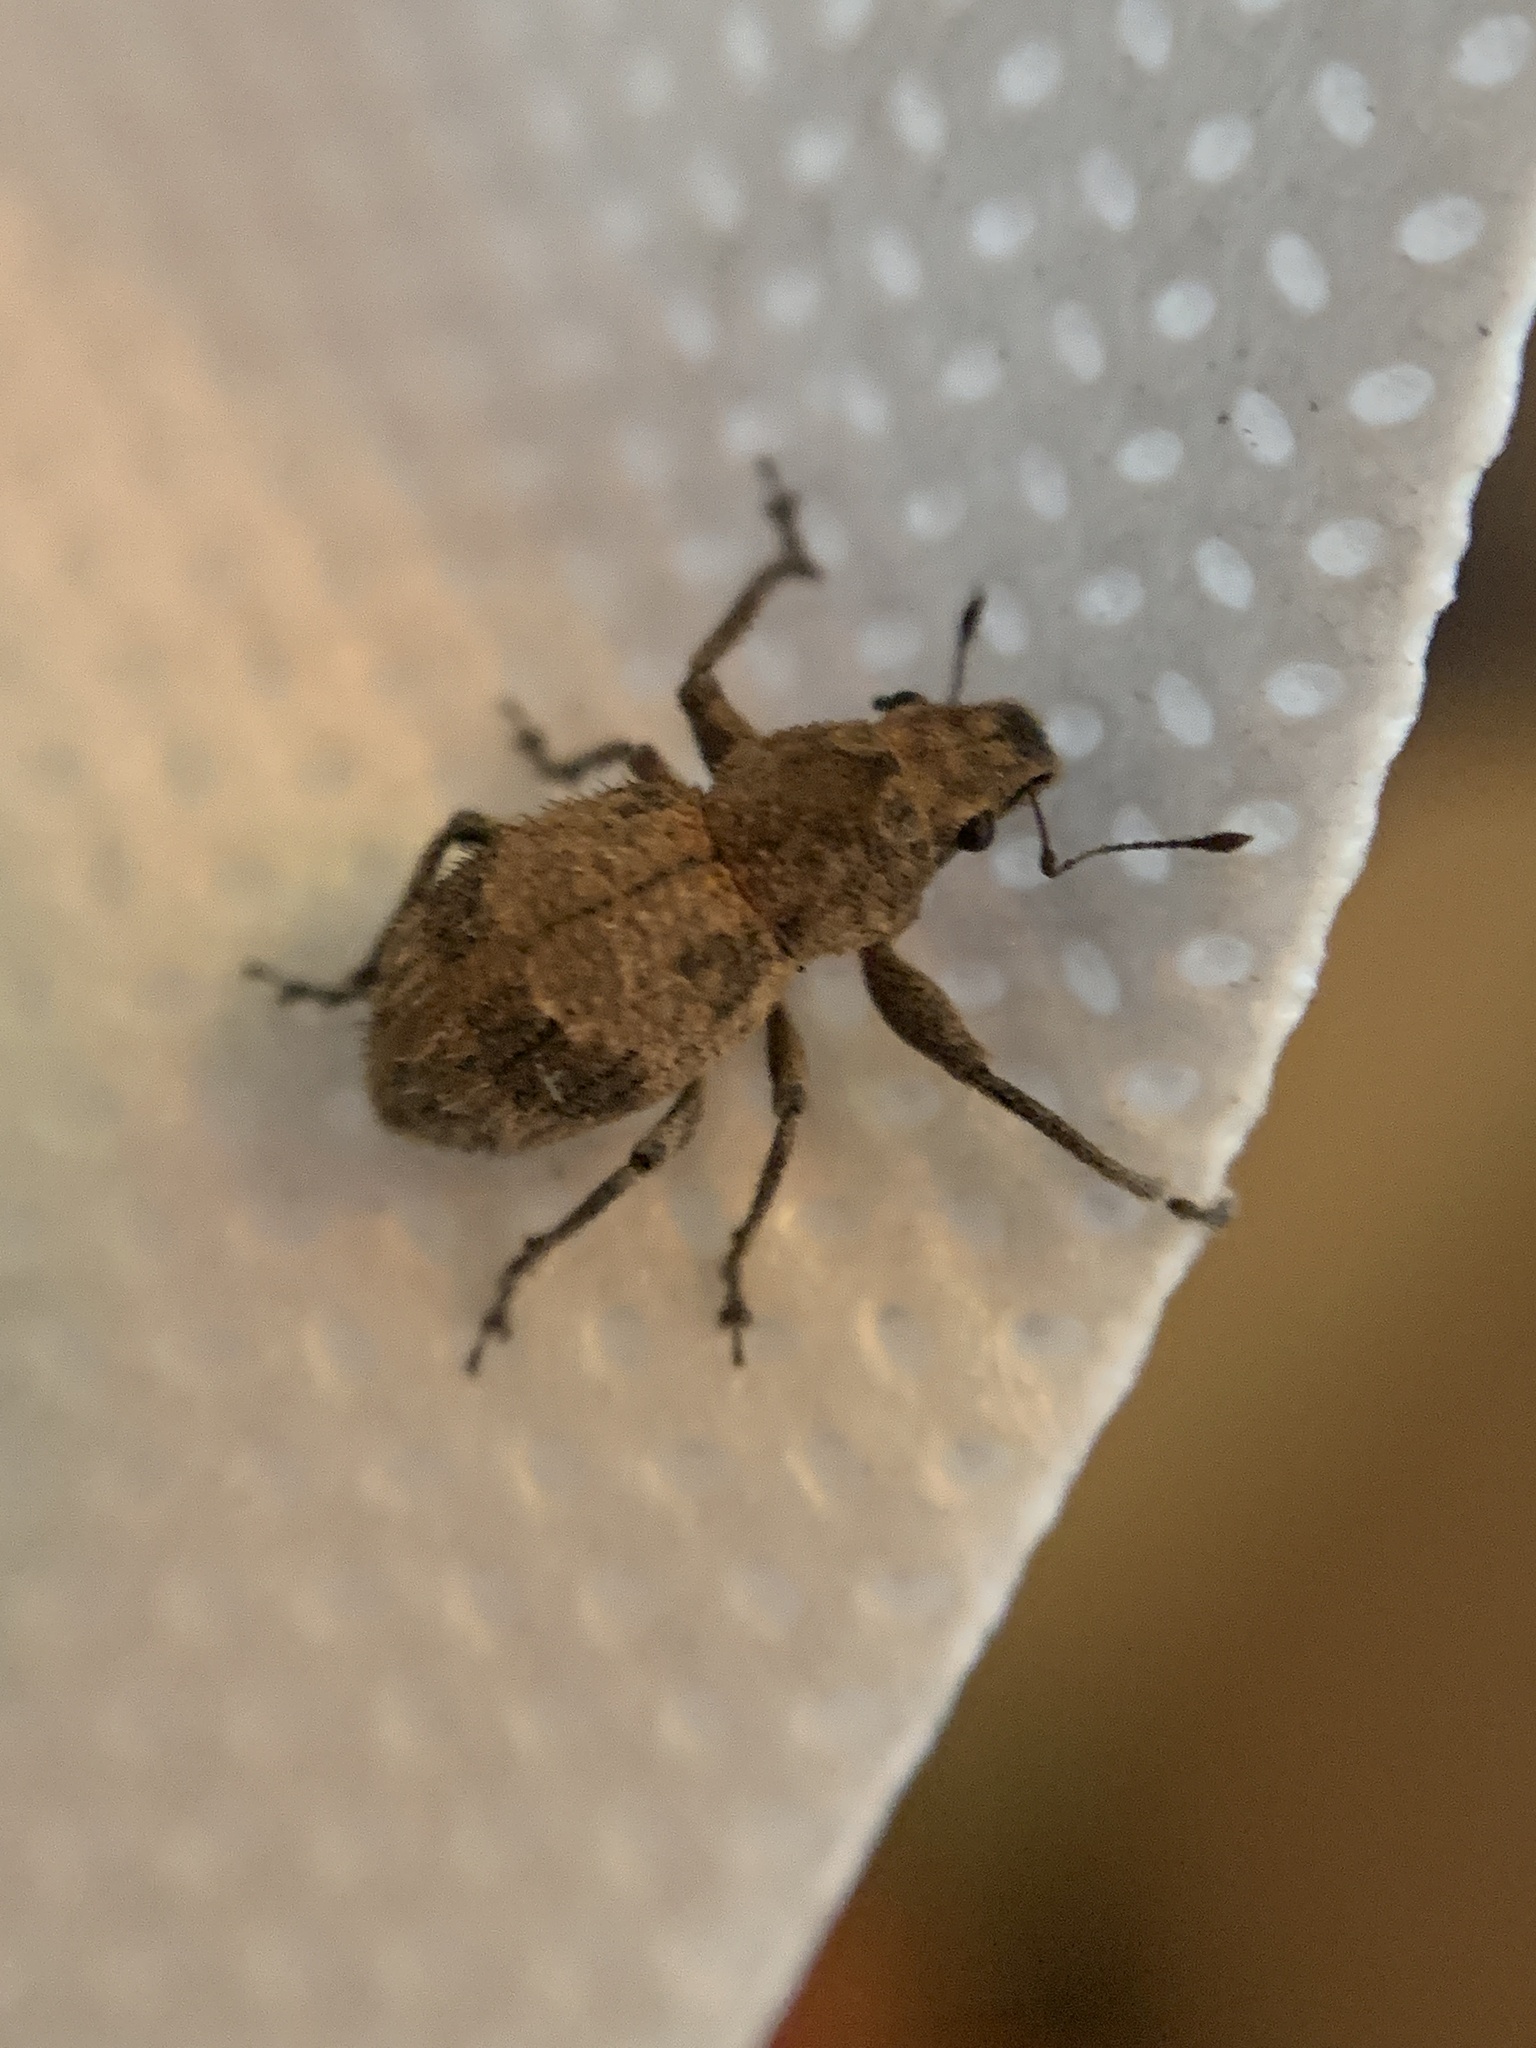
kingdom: Animalia
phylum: Arthropoda
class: Insecta
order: Coleoptera
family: Curculionidae
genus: Pantomorus
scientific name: Pantomorus
